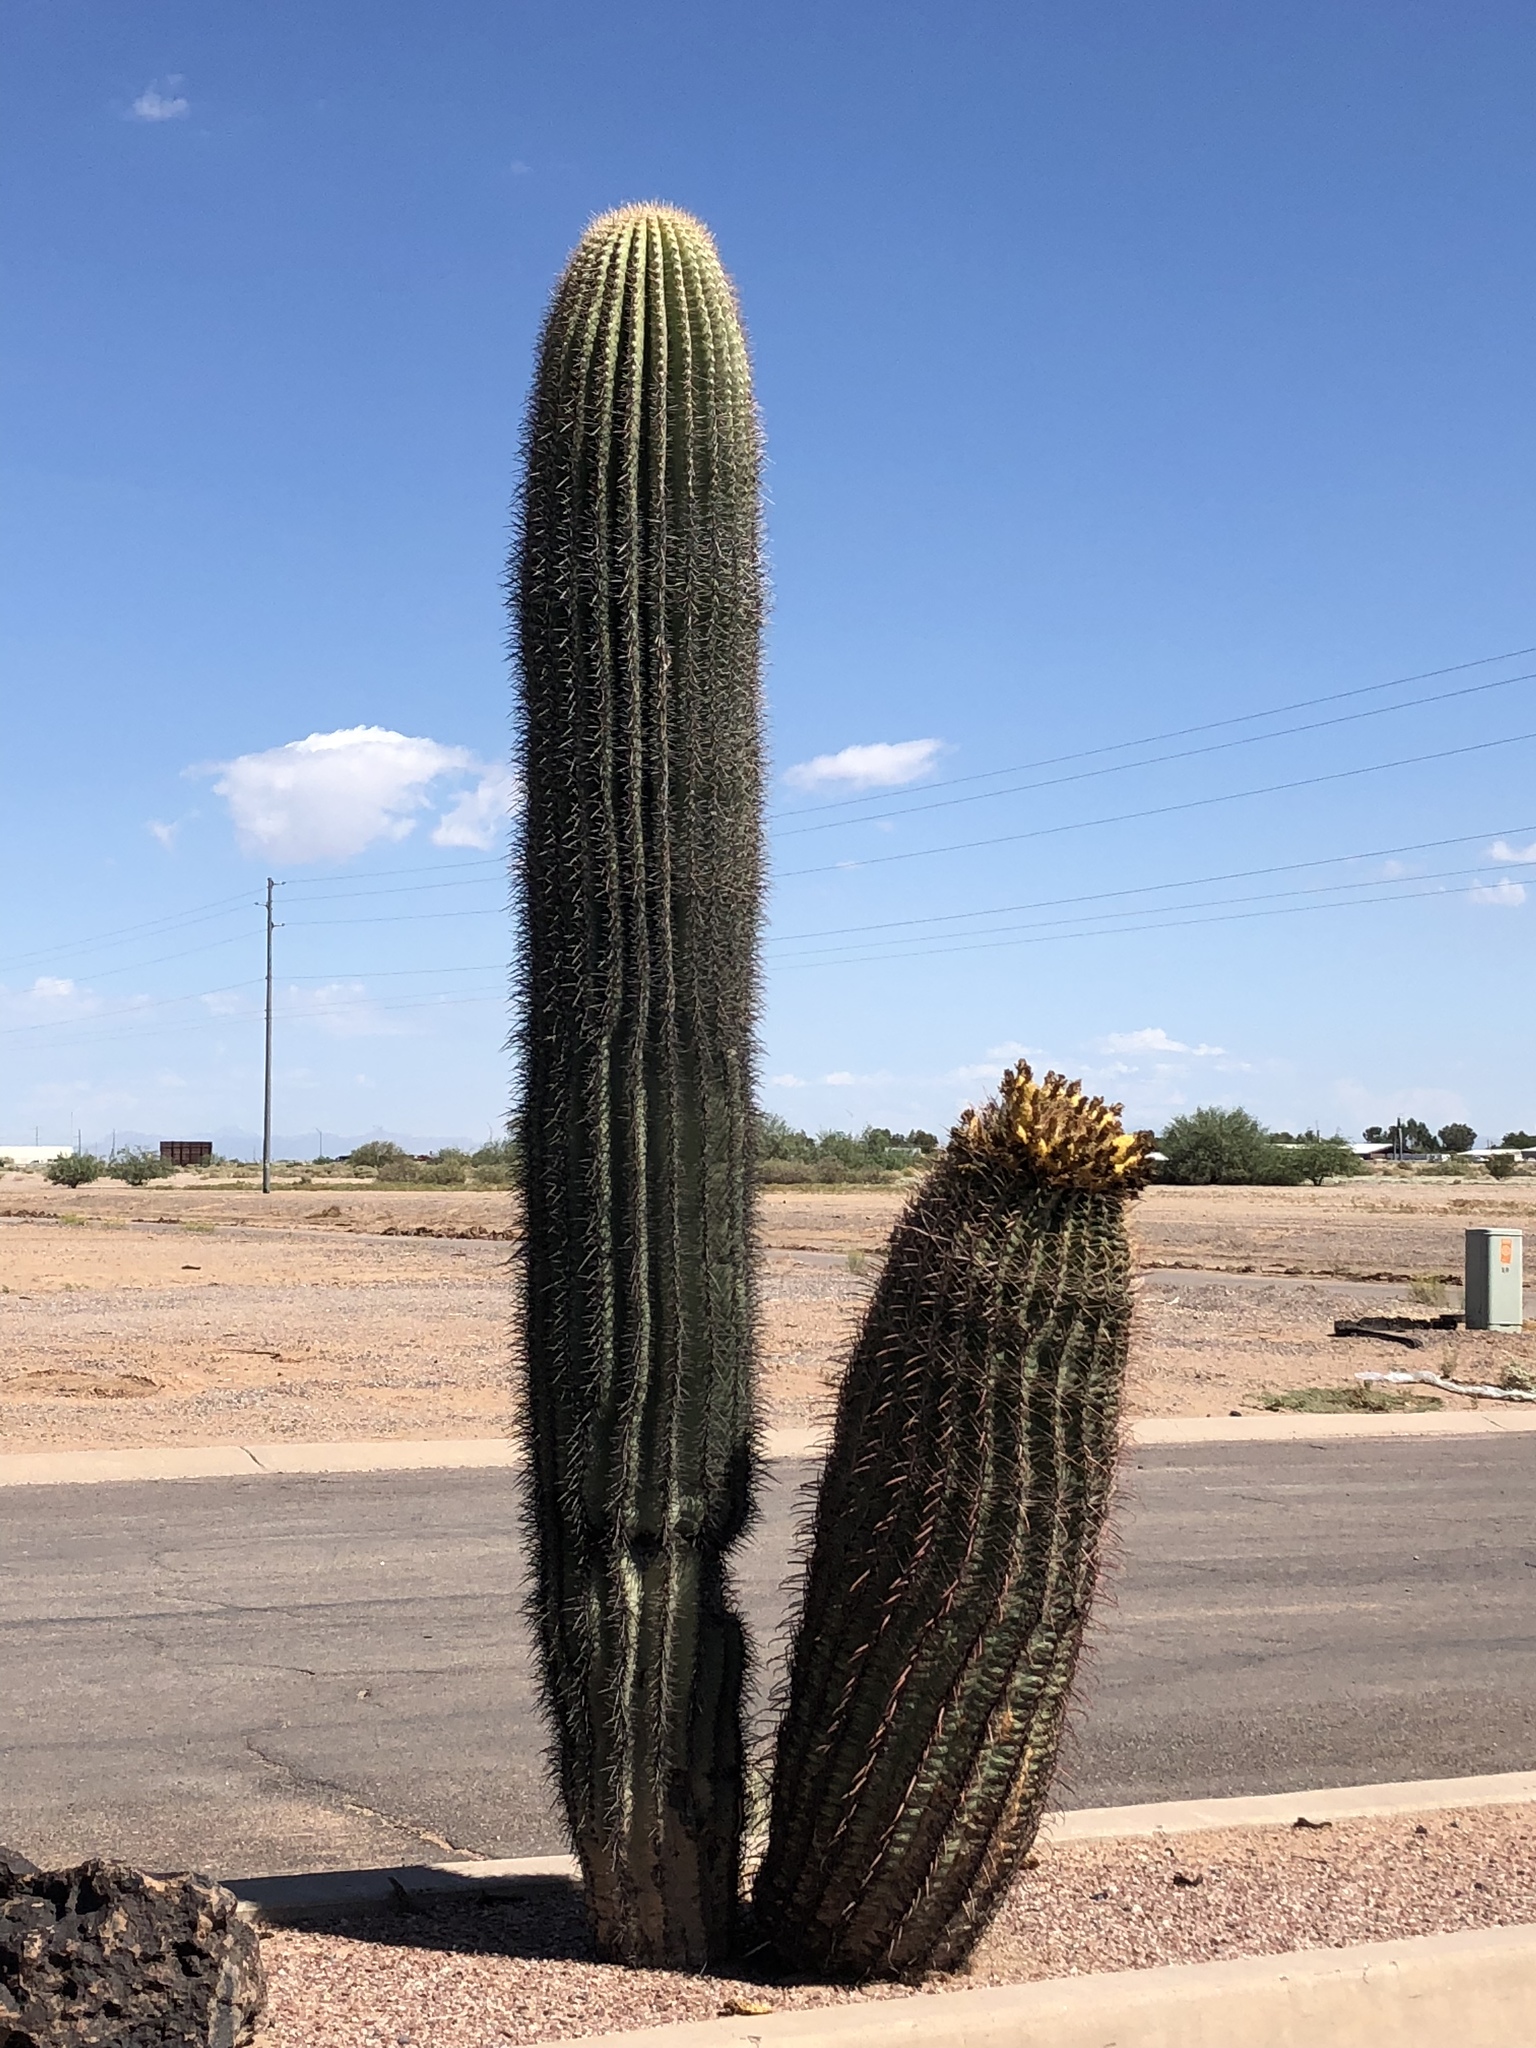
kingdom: Plantae
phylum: Tracheophyta
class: Magnoliopsida
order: Caryophyllales
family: Cactaceae
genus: Ferocactus
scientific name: Ferocactus cylindraceus
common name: California barrel cactus
